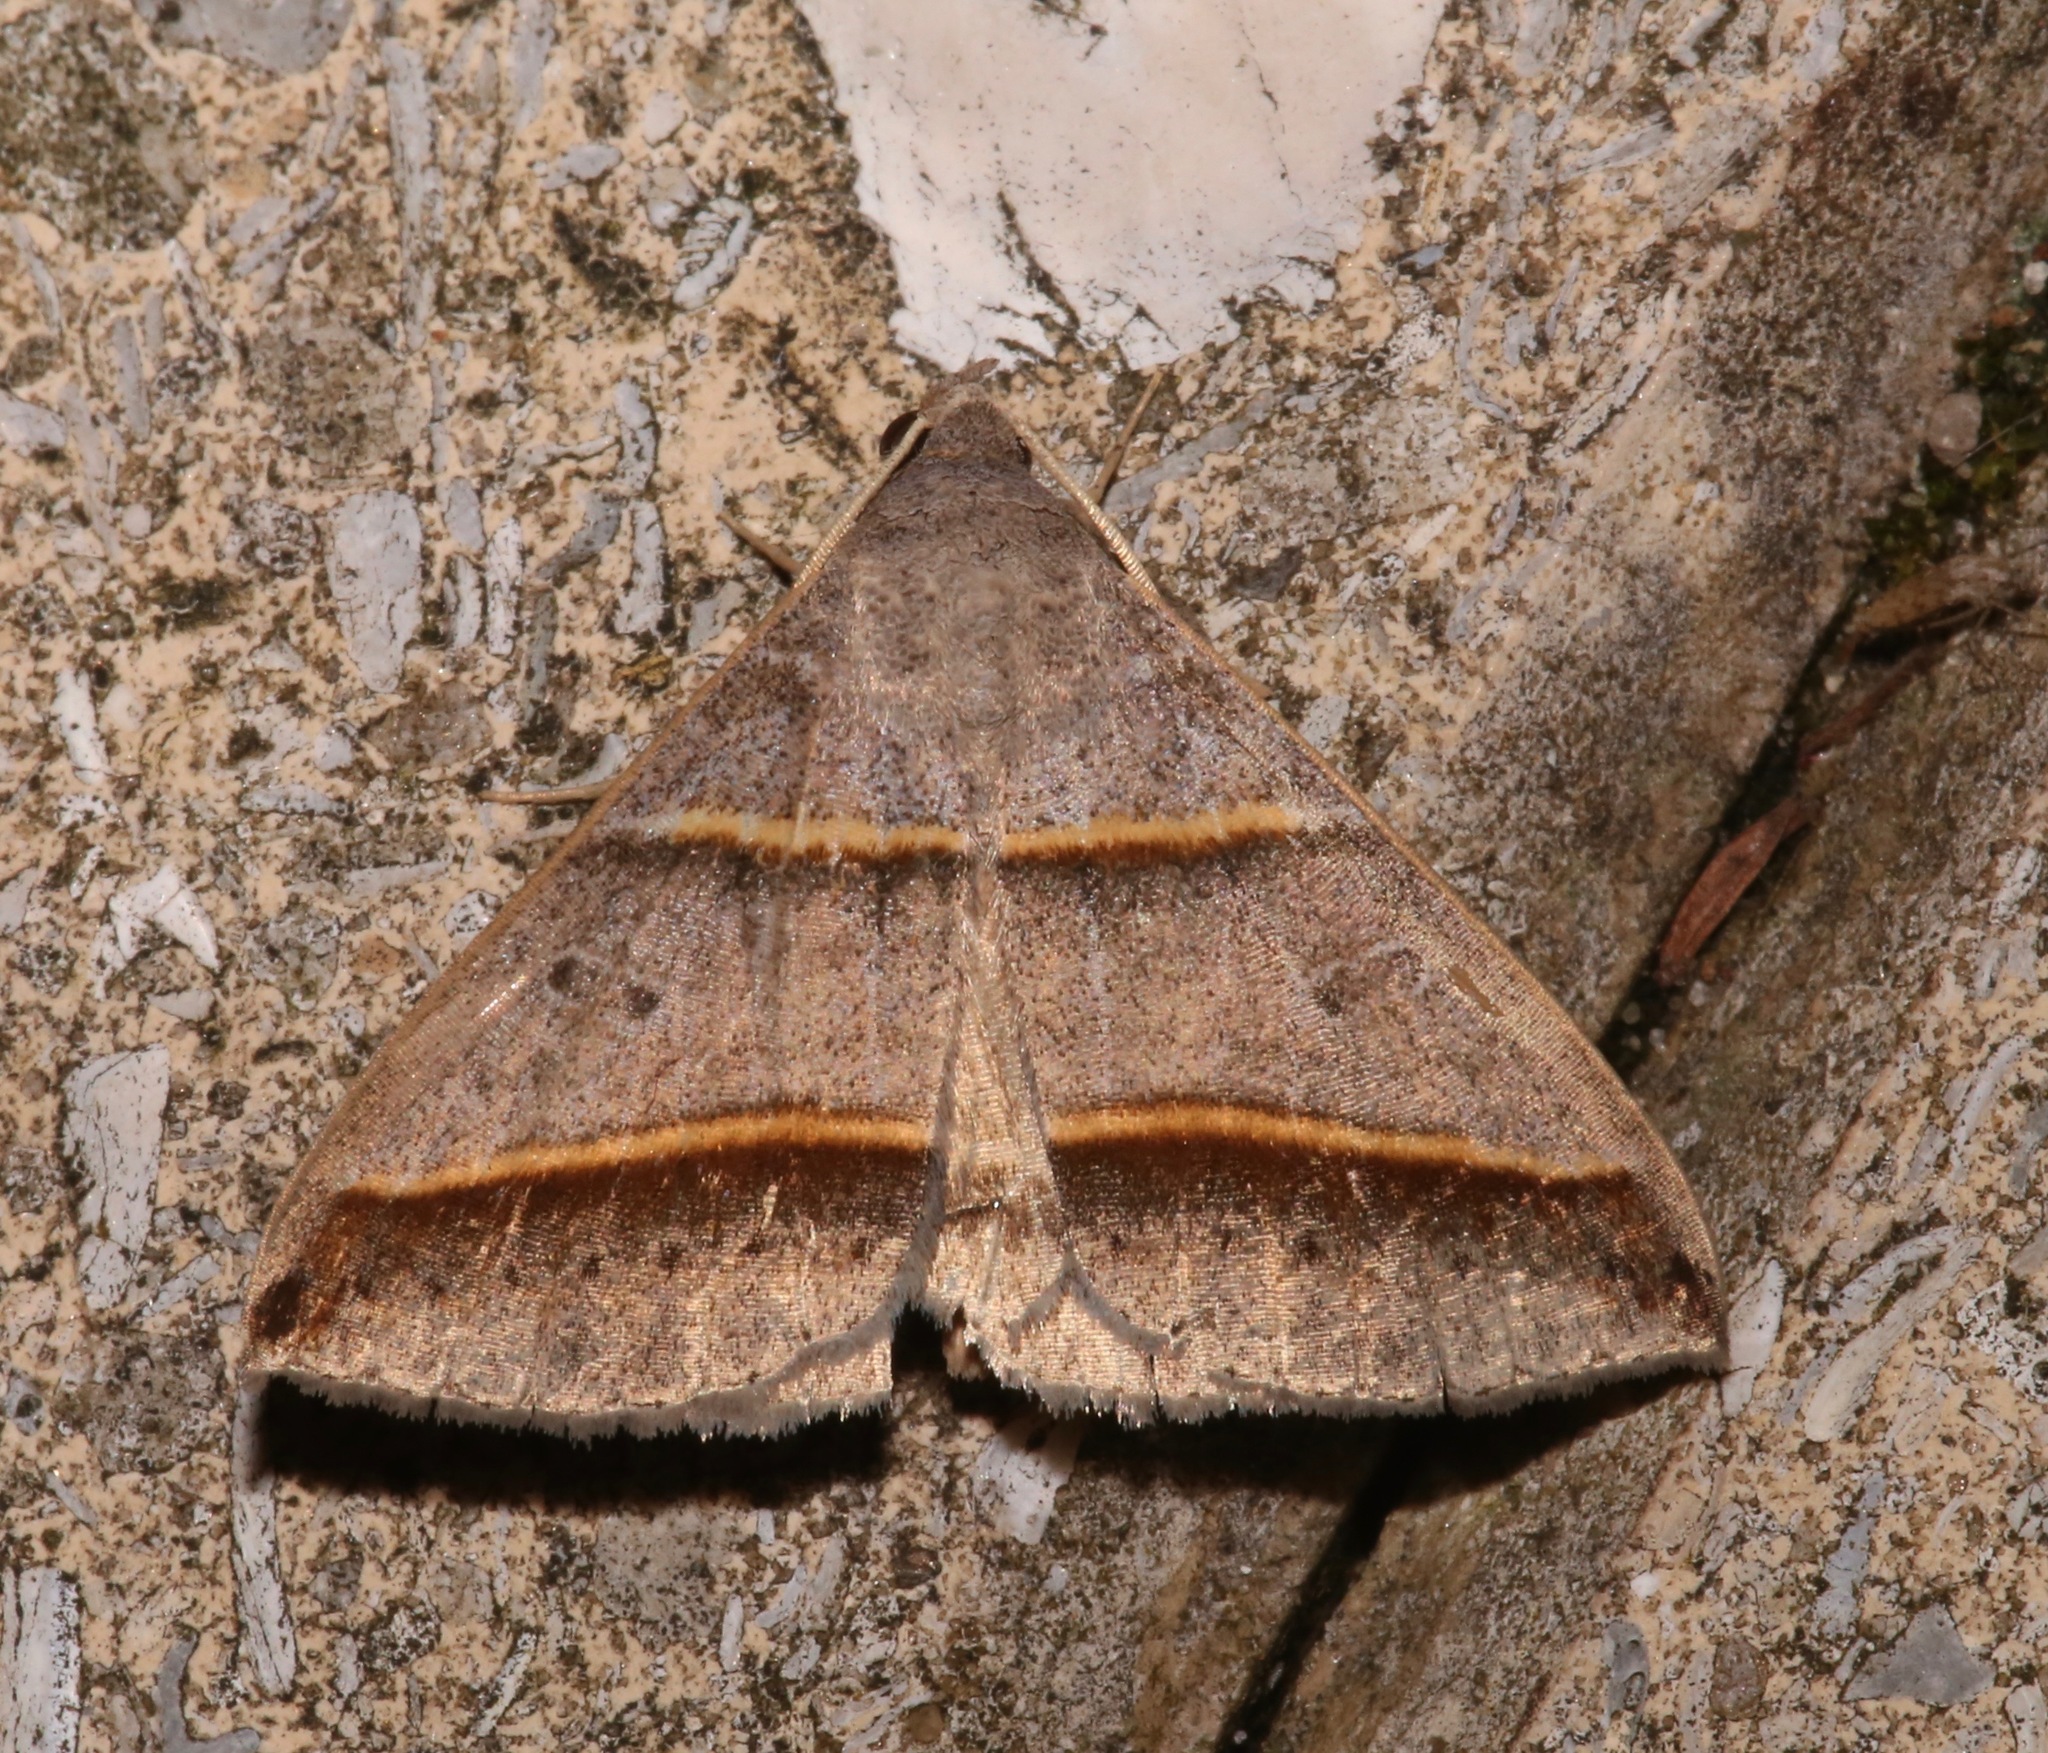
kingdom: Animalia
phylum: Arthropoda
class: Insecta
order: Lepidoptera
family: Erebidae
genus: Ptichodis
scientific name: Ptichodis vinculum
